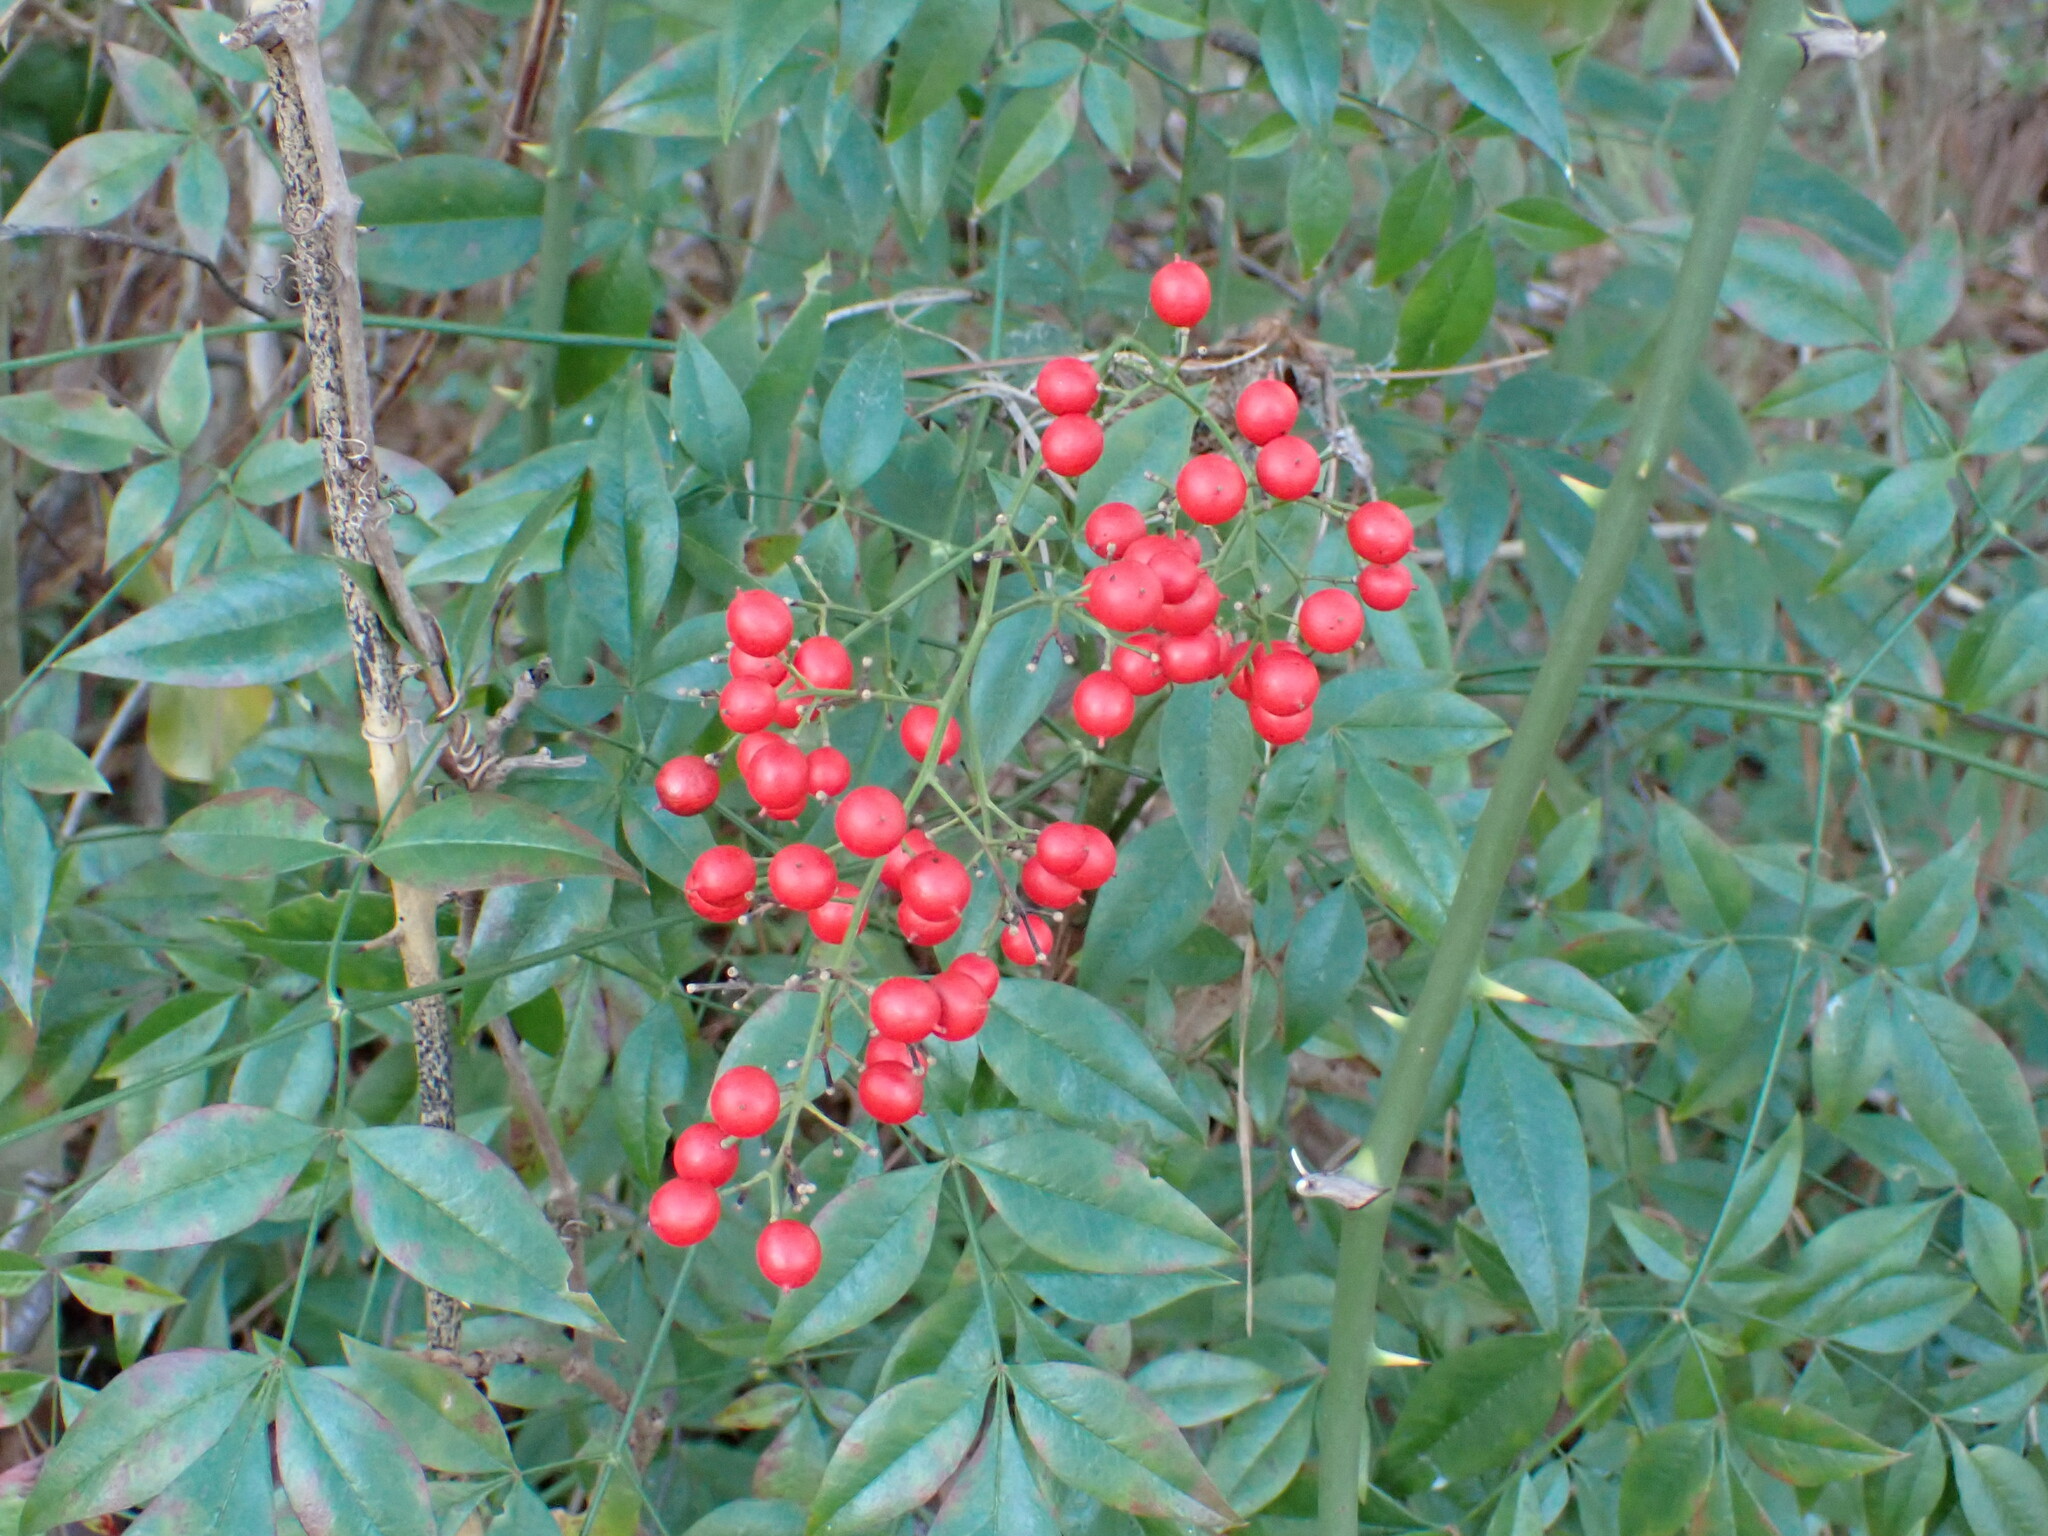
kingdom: Plantae
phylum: Tracheophyta
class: Magnoliopsida
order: Ranunculales
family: Berberidaceae
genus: Nandina
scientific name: Nandina domestica
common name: Sacred bamboo
